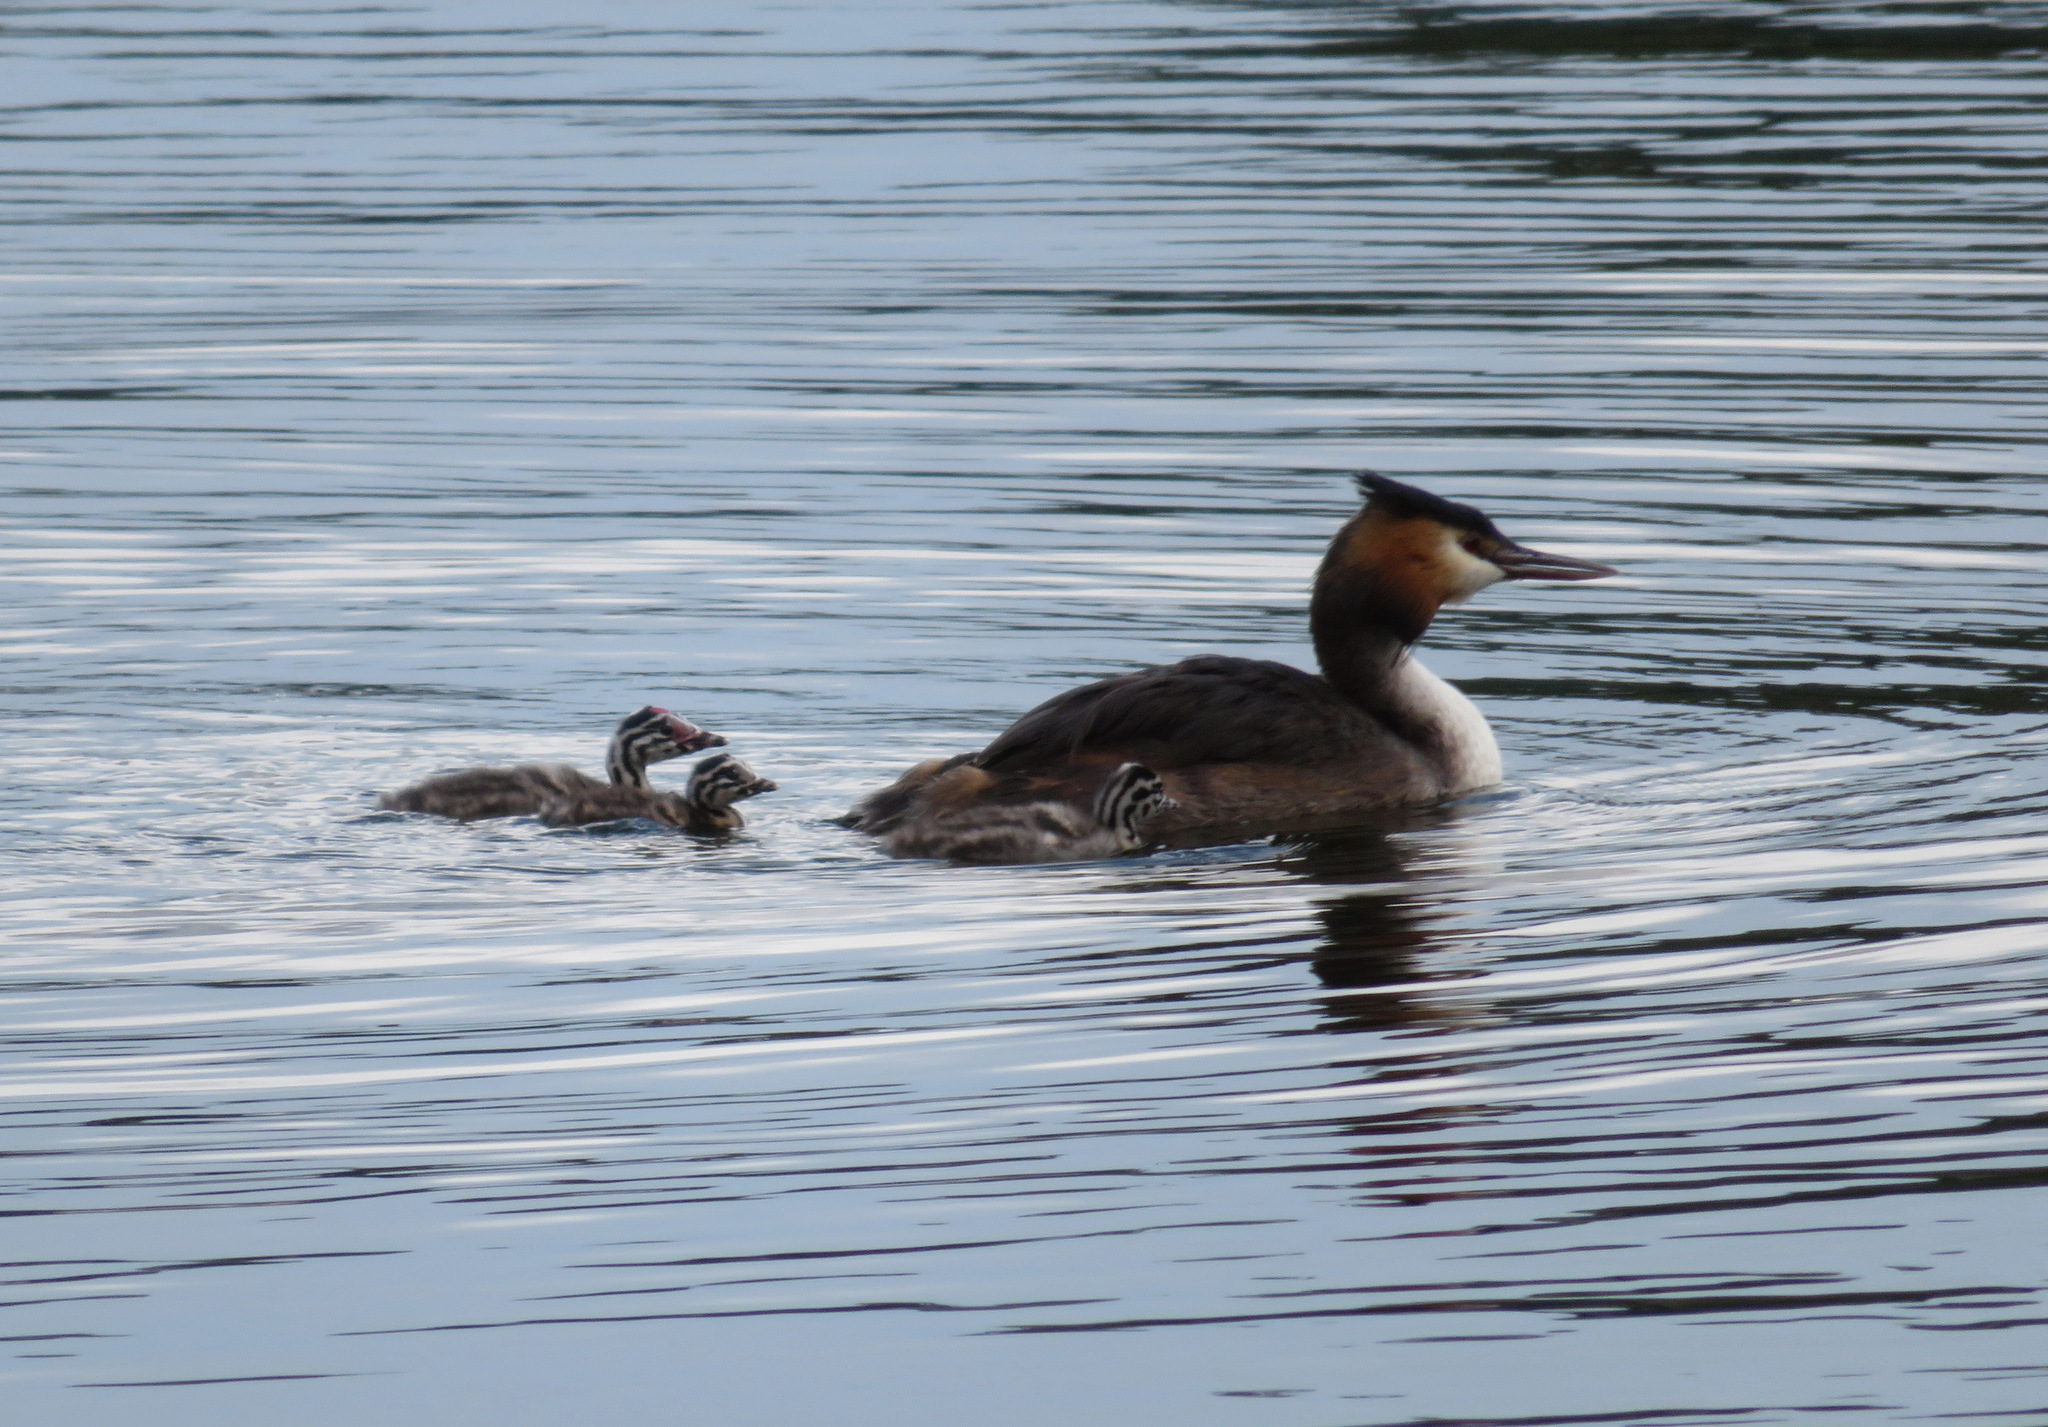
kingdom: Animalia
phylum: Chordata
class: Aves
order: Podicipediformes
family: Podicipedidae
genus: Podiceps
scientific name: Podiceps cristatus
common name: Great crested grebe
